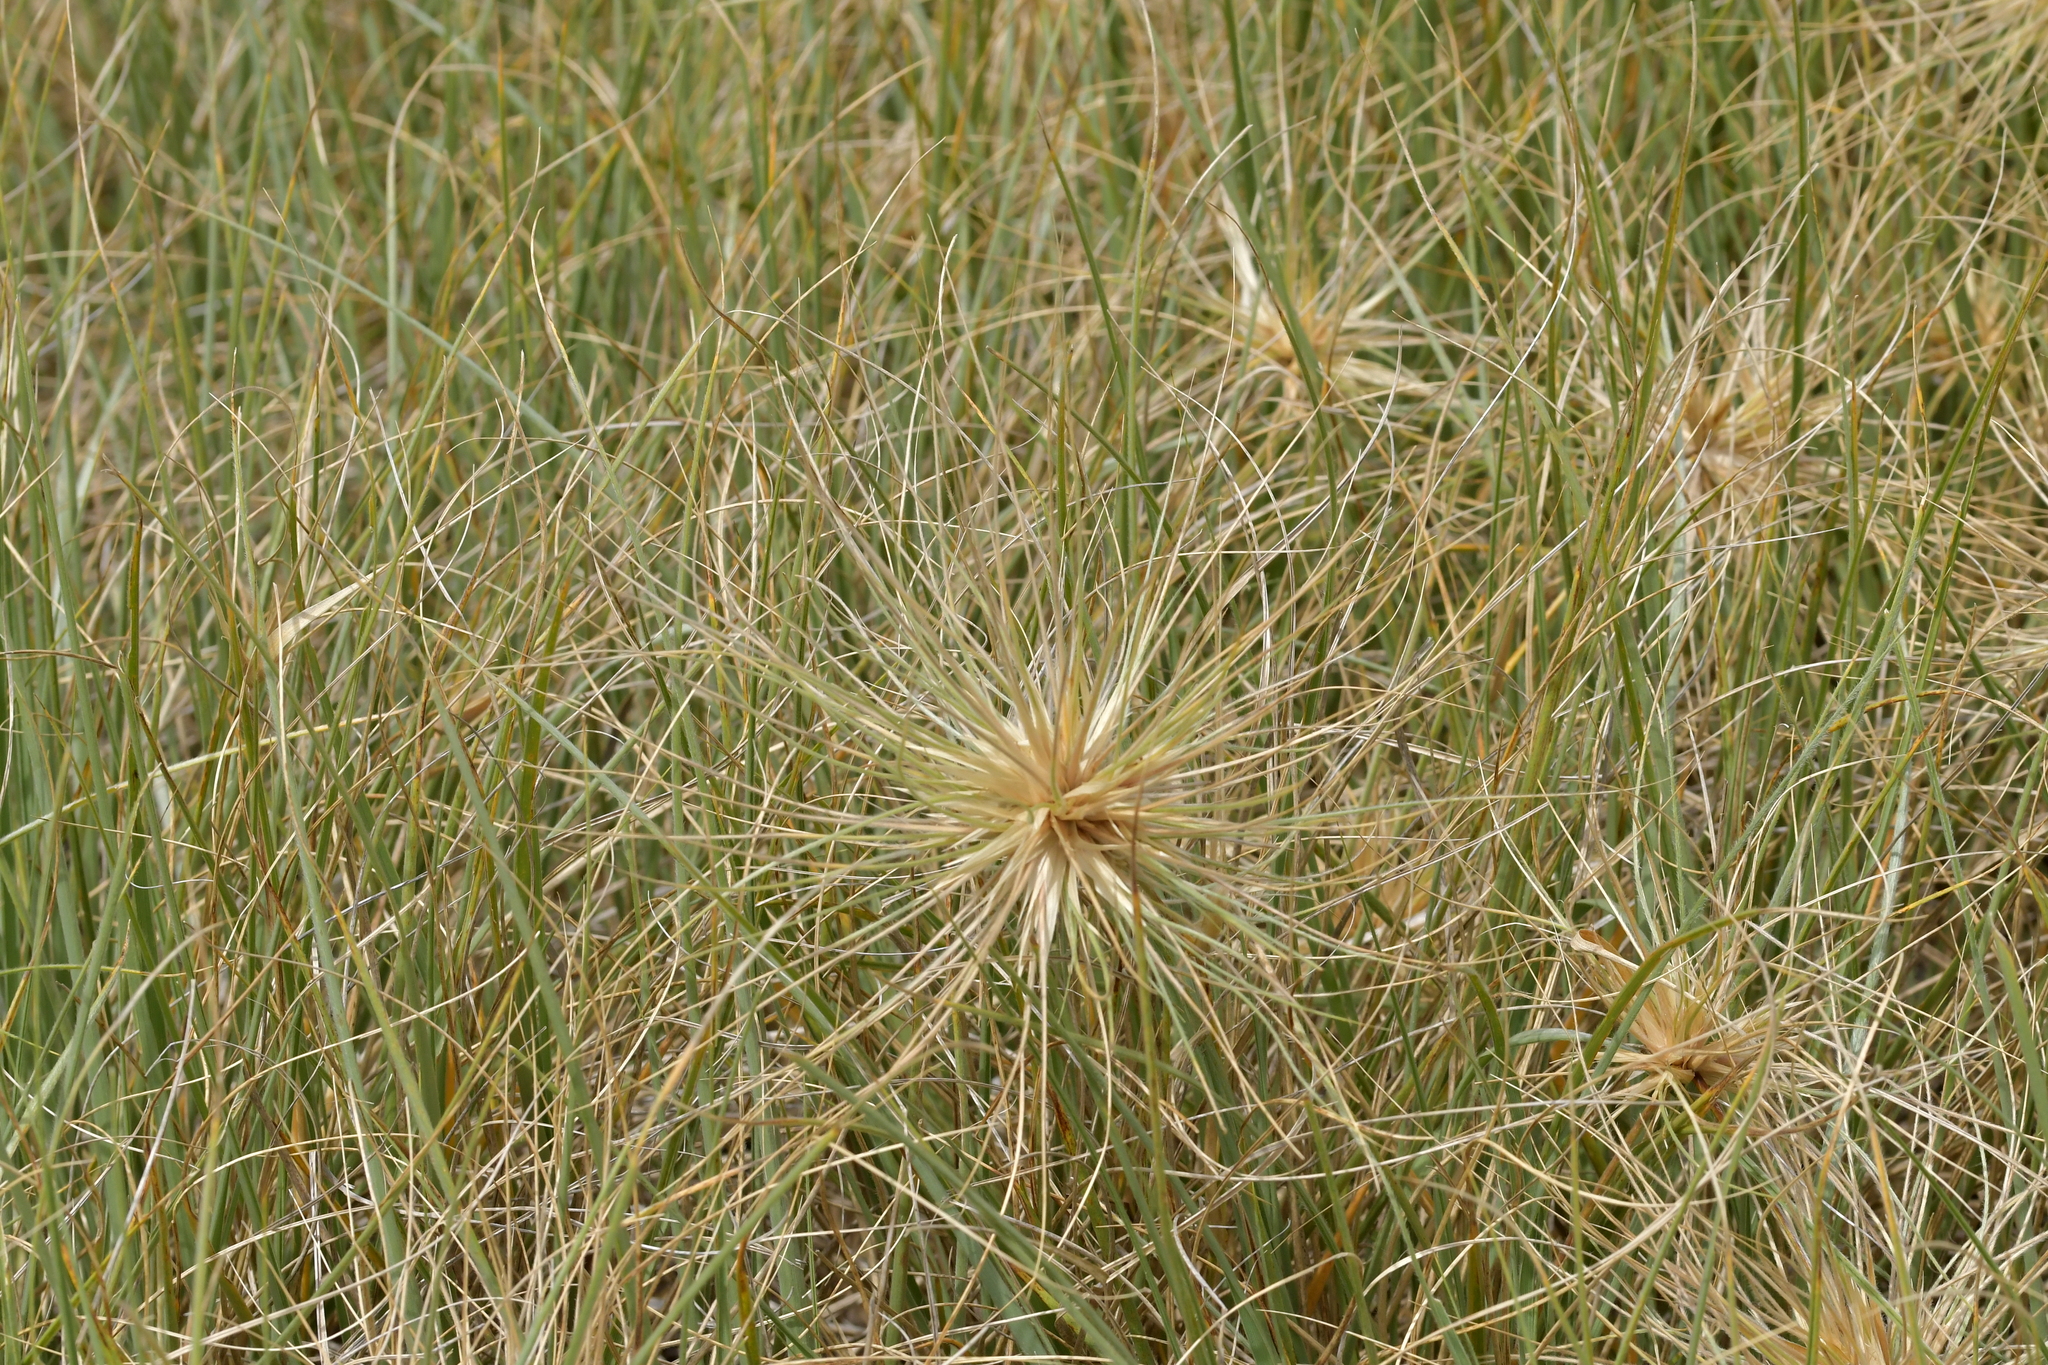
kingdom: Plantae
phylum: Tracheophyta
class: Liliopsida
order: Poales
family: Poaceae
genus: Spinifex
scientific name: Spinifex sericeus
